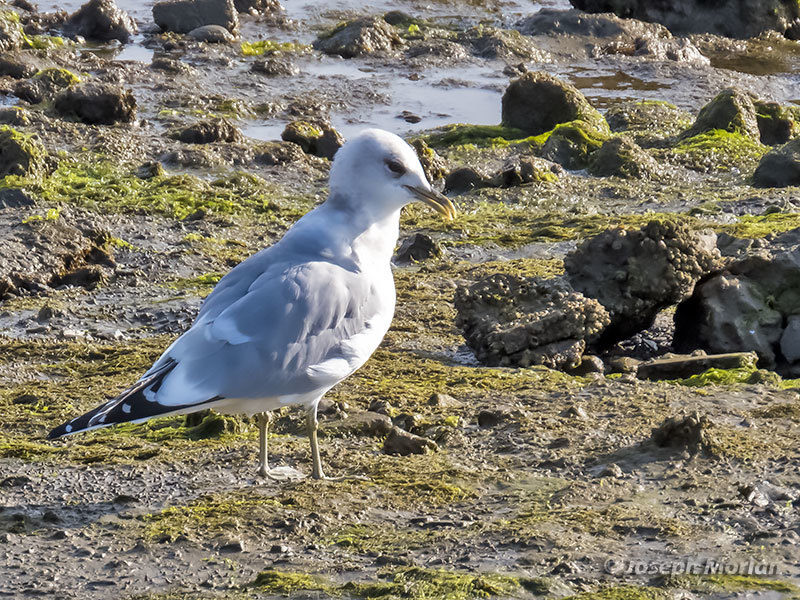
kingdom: Animalia
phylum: Chordata
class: Aves
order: Charadriiformes
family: Laridae
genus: Larus
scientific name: Larus brachyrhynchus
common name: Short-billed gull
